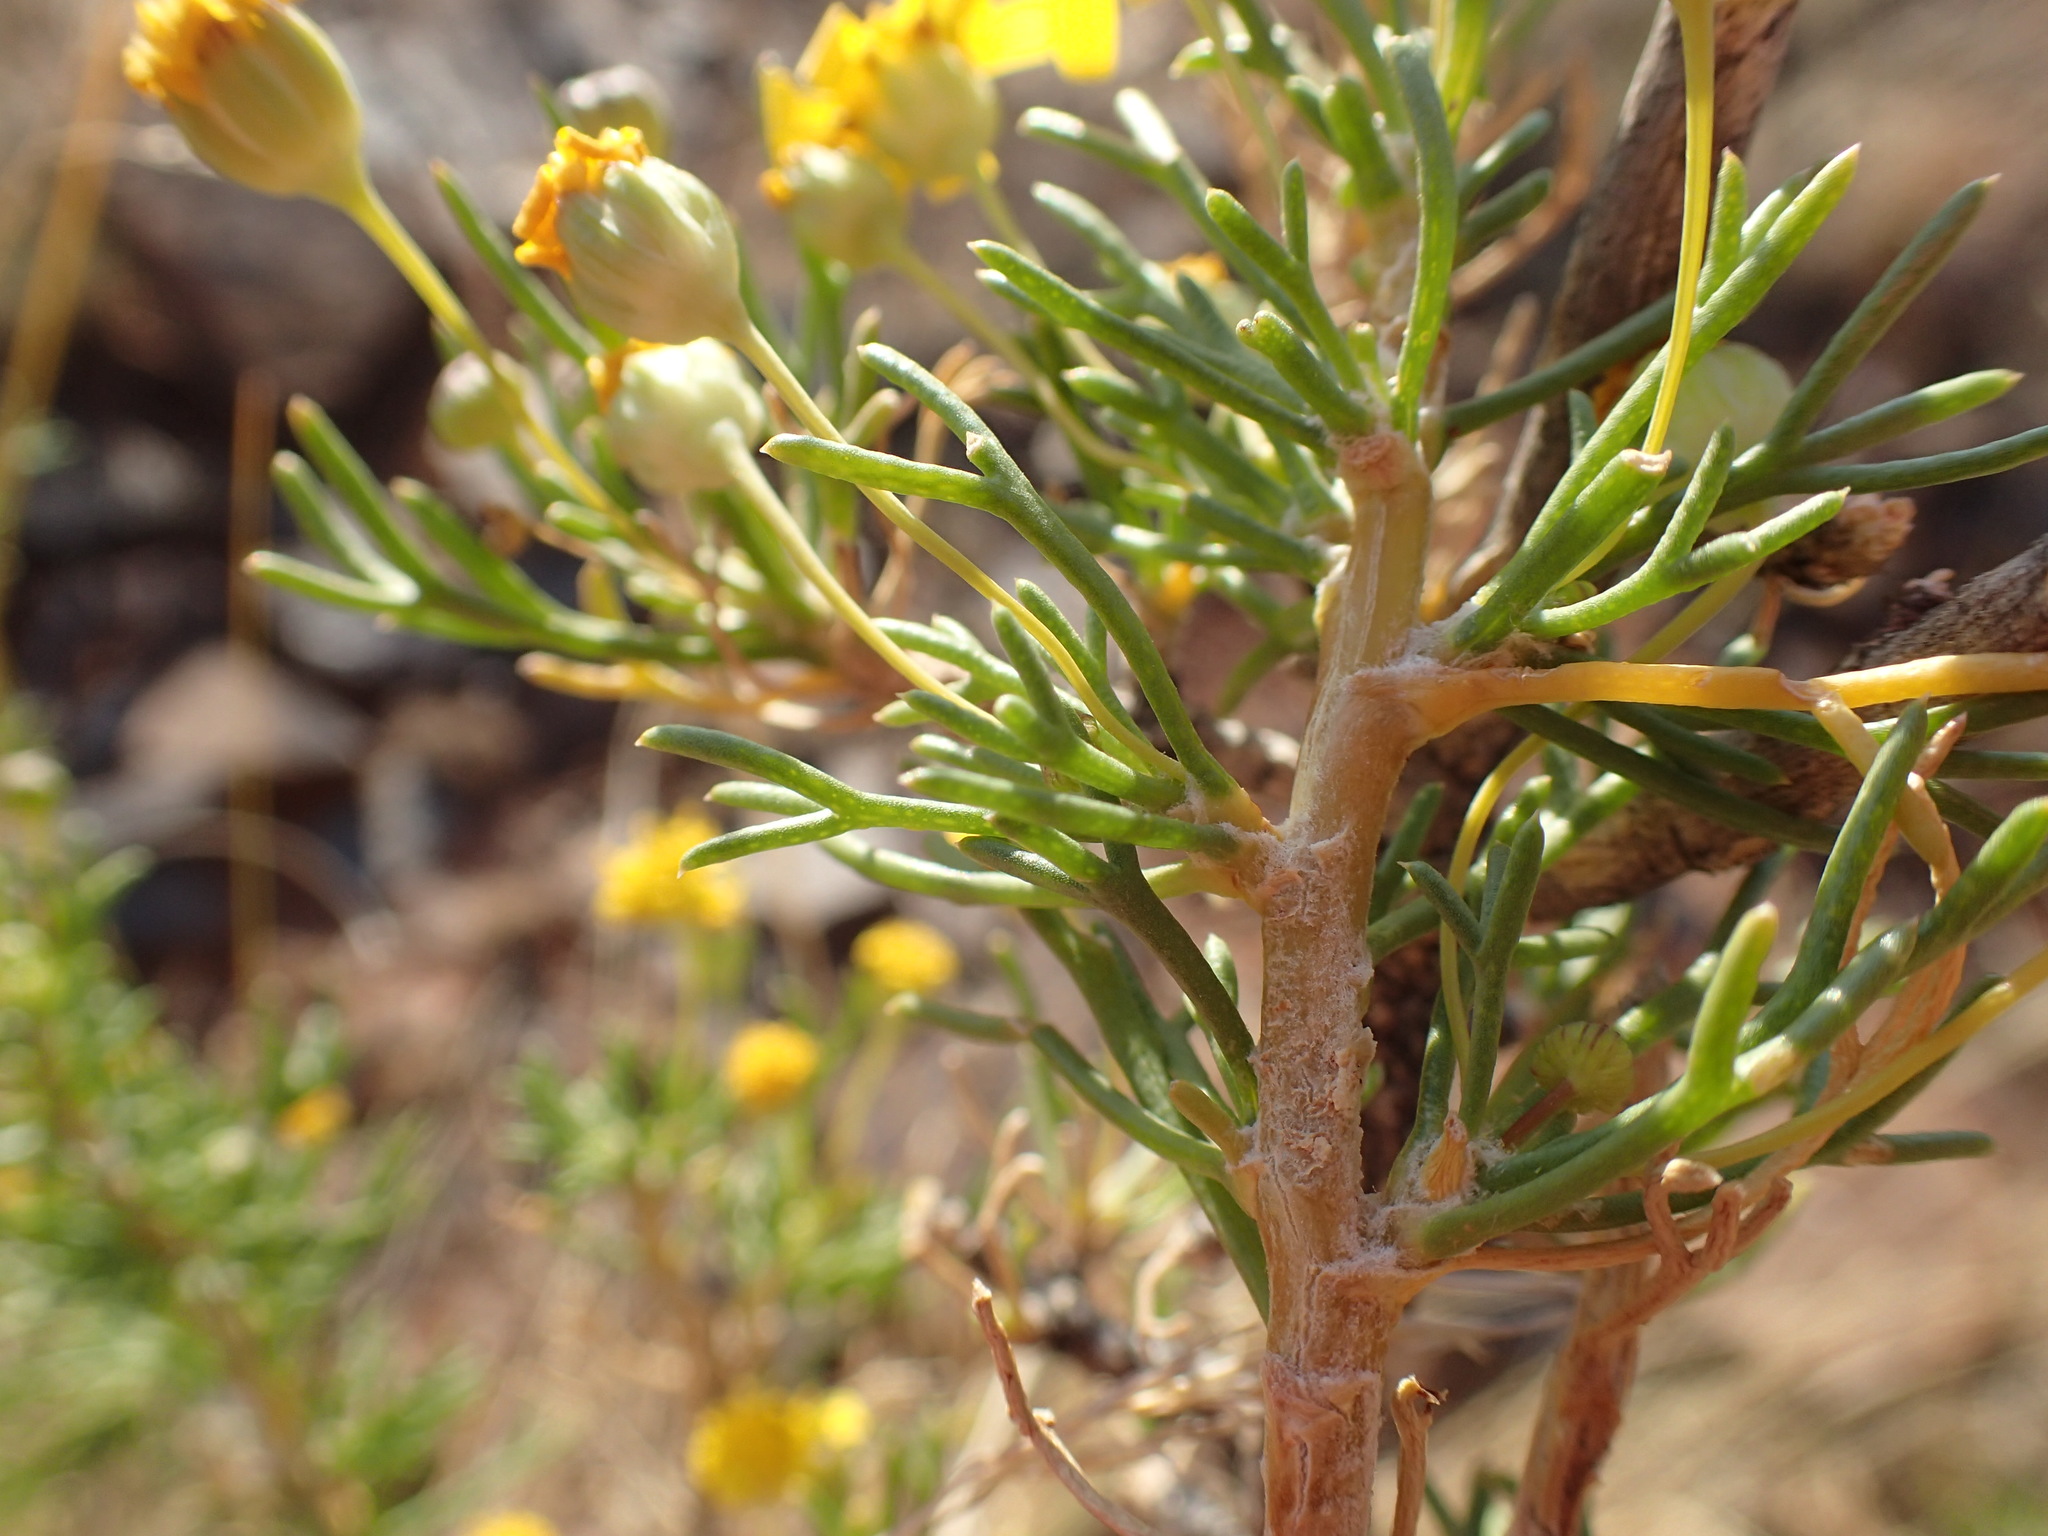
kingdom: Plantae
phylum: Tracheophyta
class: Magnoliopsida
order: Asterales
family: Asteraceae
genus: Euryops
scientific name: Euryops subcarnosus
